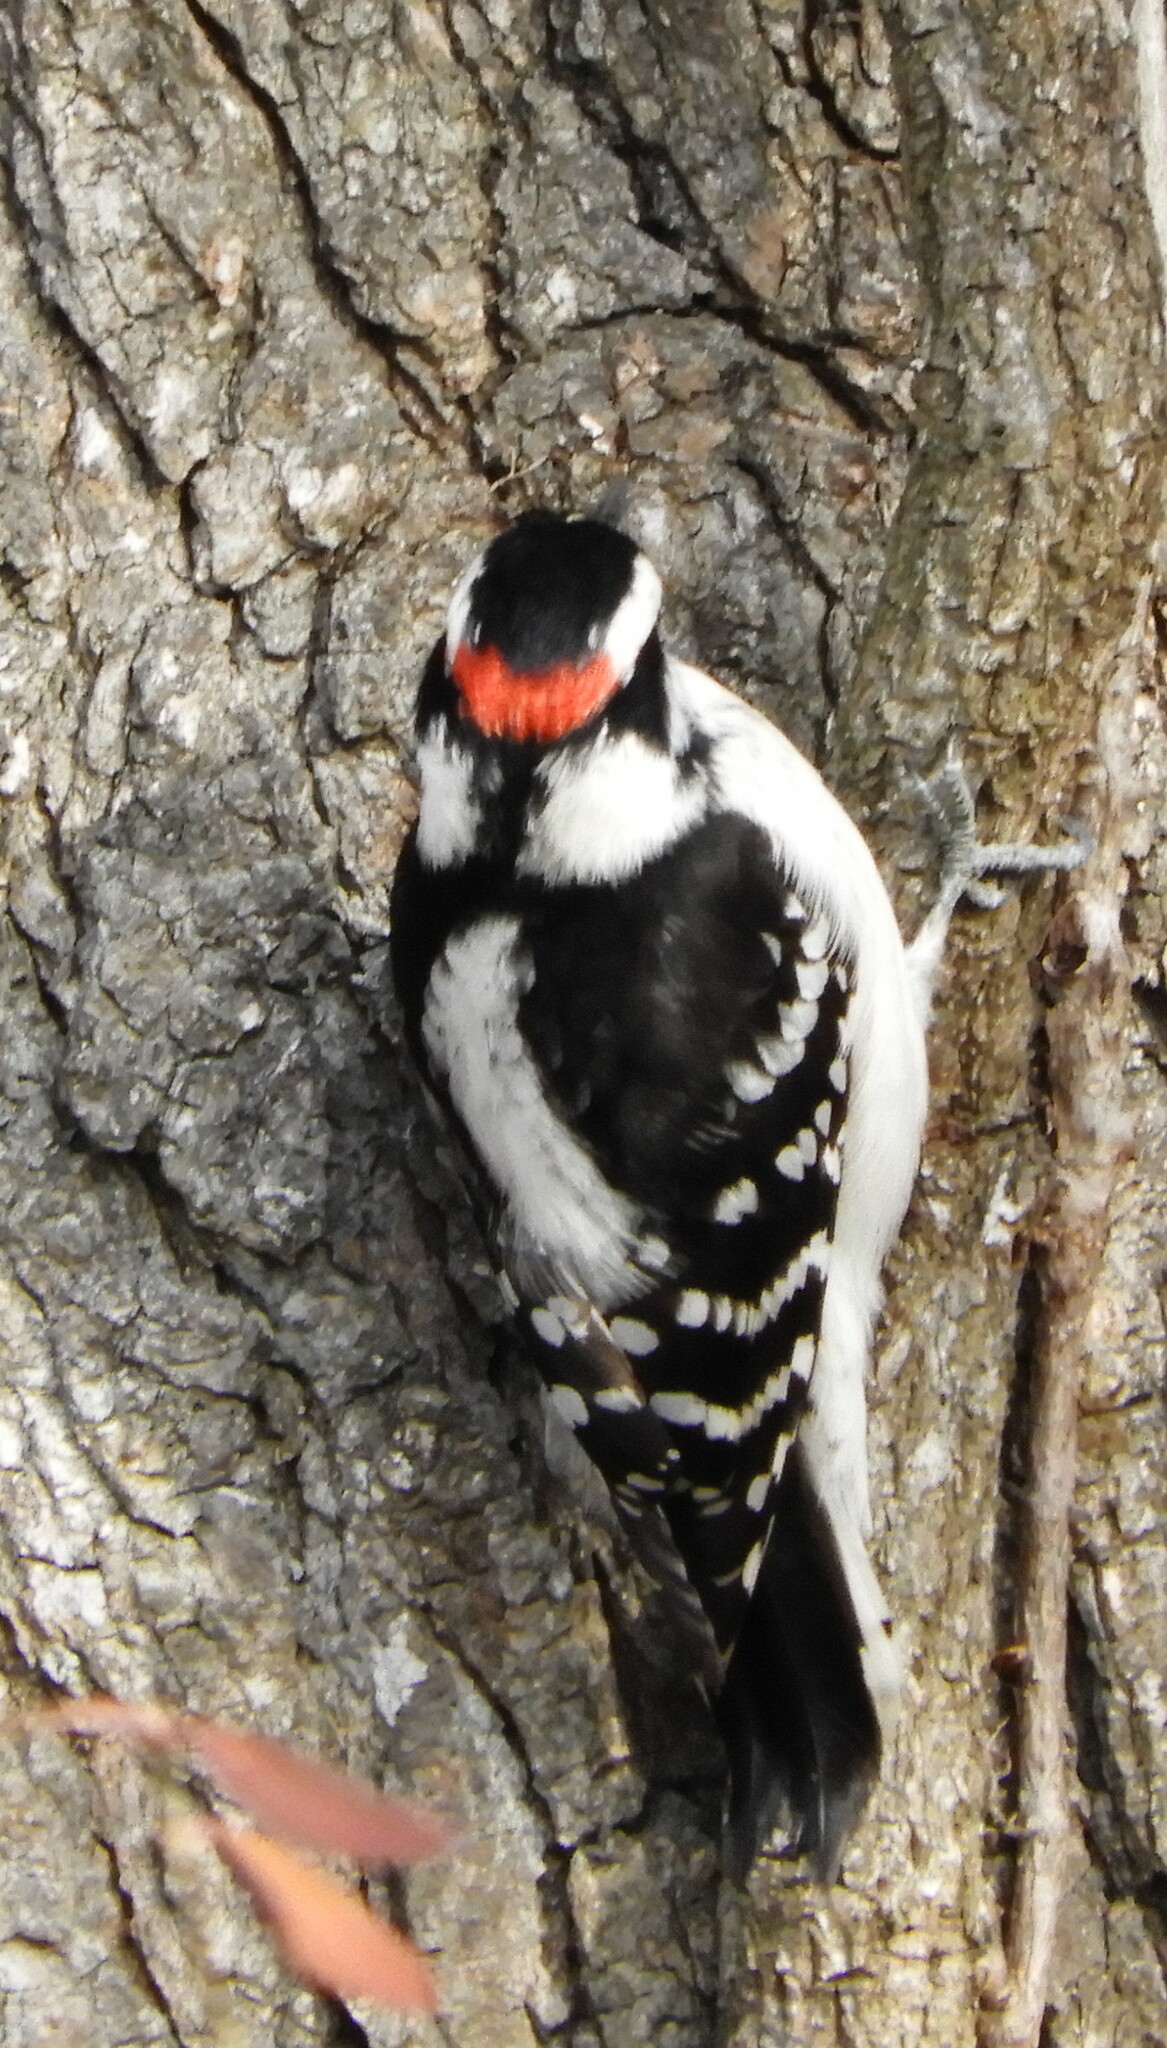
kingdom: Animalia
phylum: Chordata
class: Aves
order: Piciformes
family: Picidae
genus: Dryobates
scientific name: Dryobates pubescens
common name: Downy woodpecker
